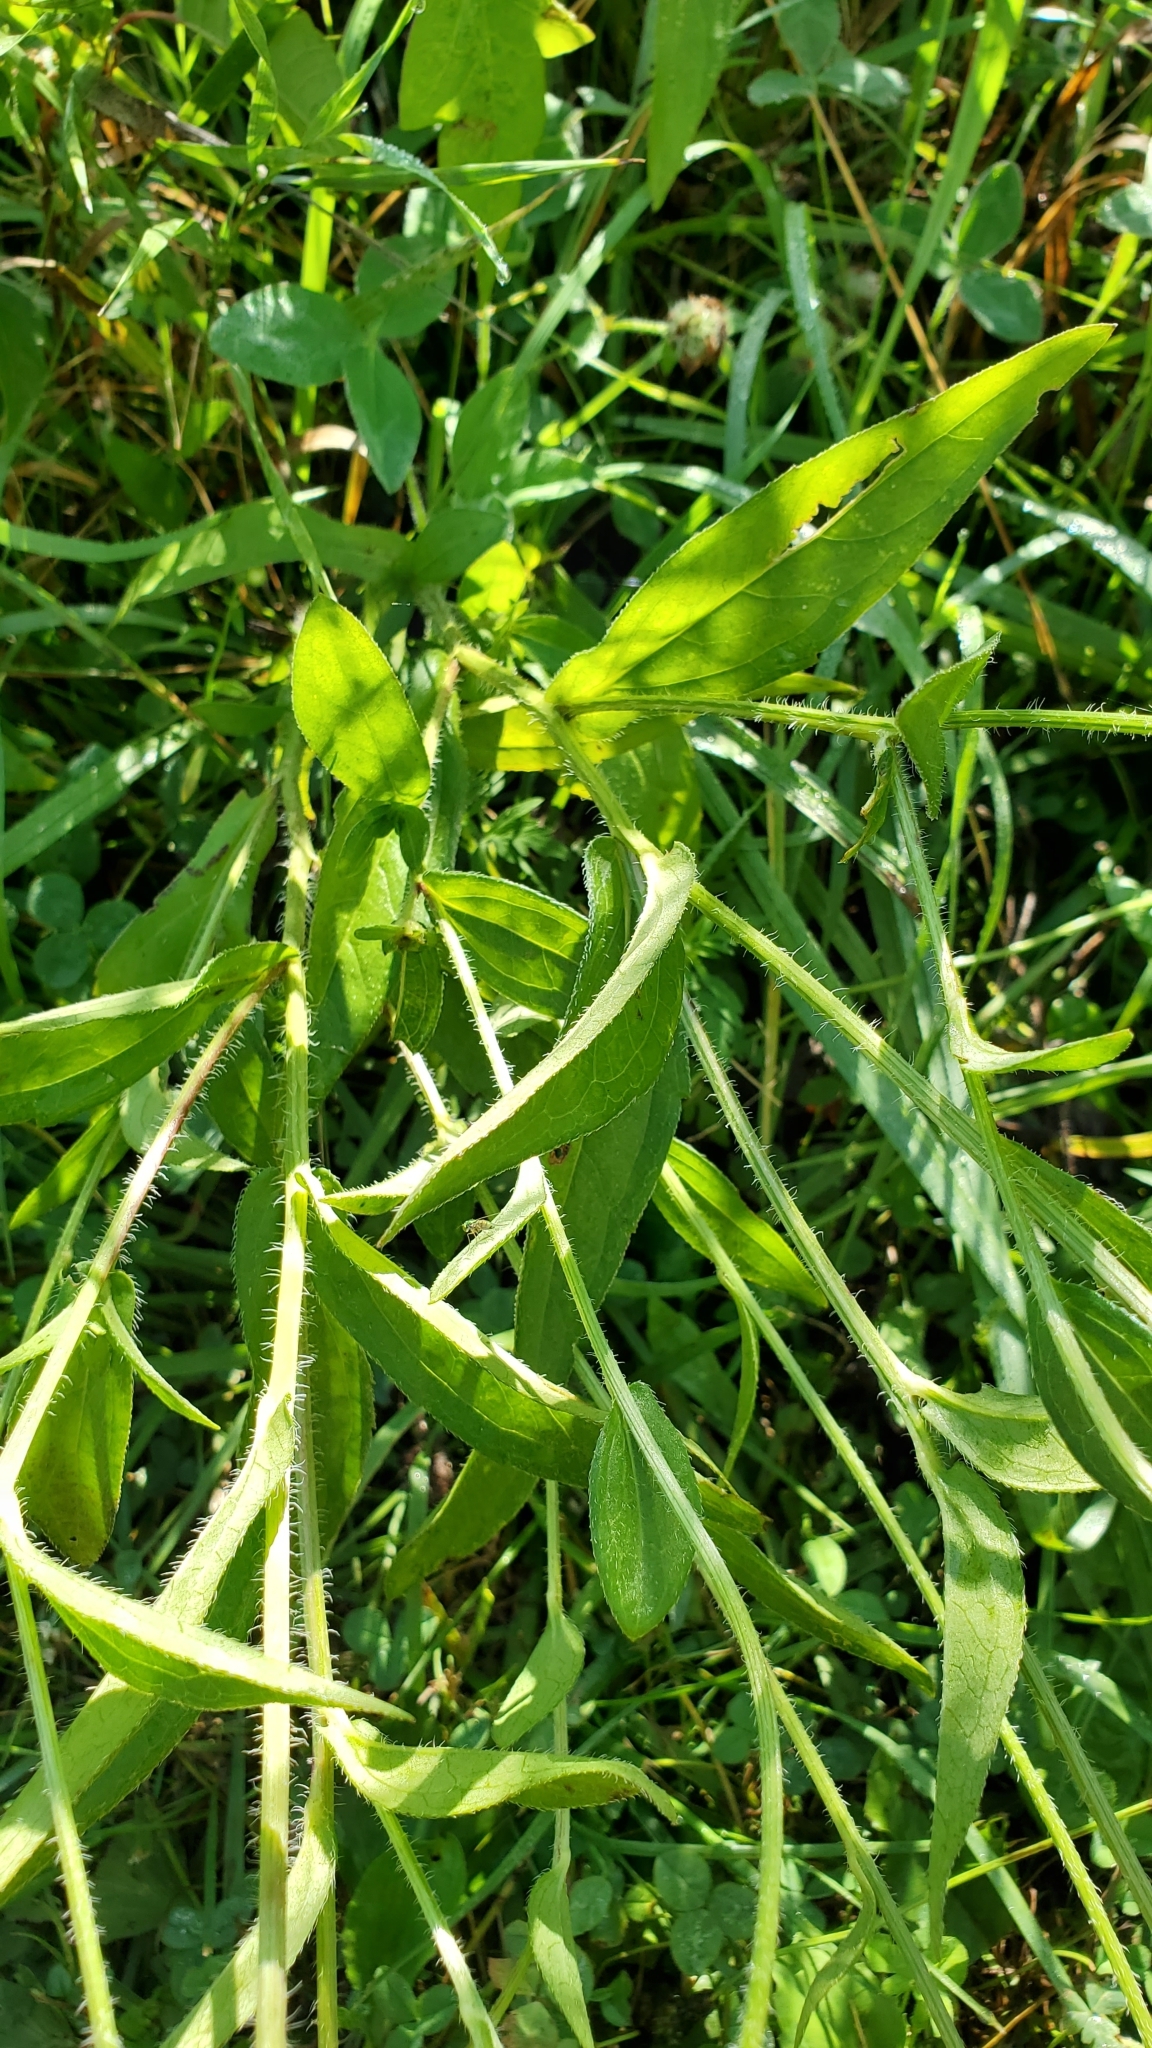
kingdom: Plantae
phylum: Tracheophyta
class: Magnoliopsida
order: Asterales
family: Asteraceae
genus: Rudbeckia
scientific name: Rudbeckia hirta
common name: Black-eyed-susan
